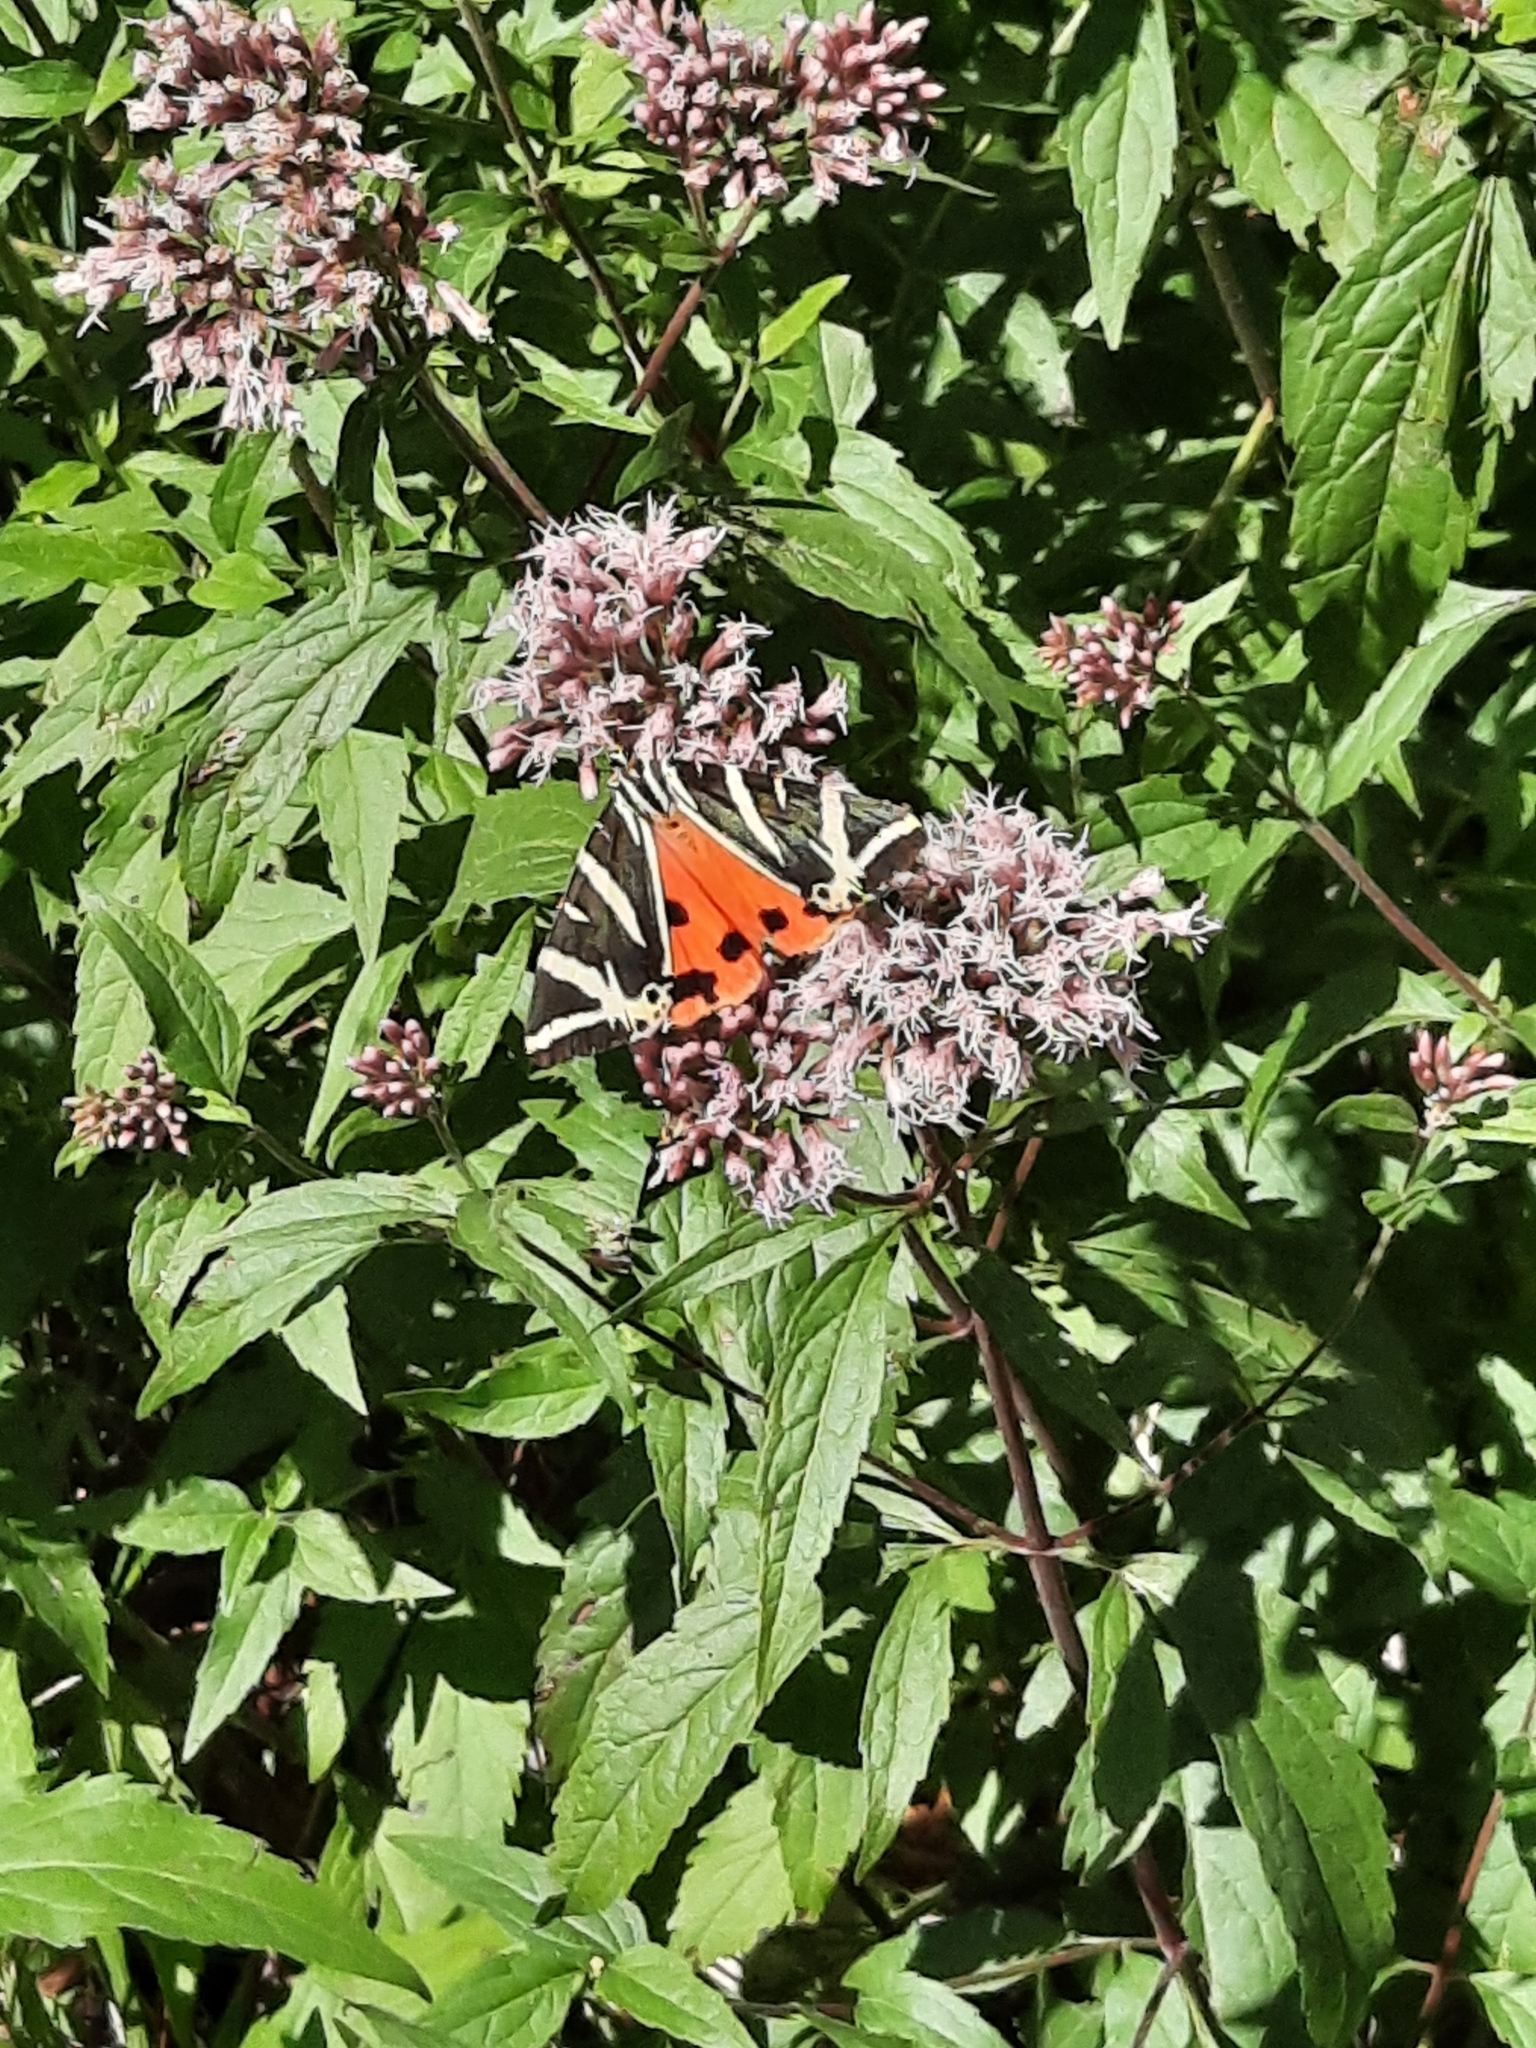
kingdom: Animalia
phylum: Arthropoda
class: Insecta
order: Lepidoptera
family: Erebidae
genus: Euplagia
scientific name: Euplagia quadripunctaria
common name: Jersey tiger
